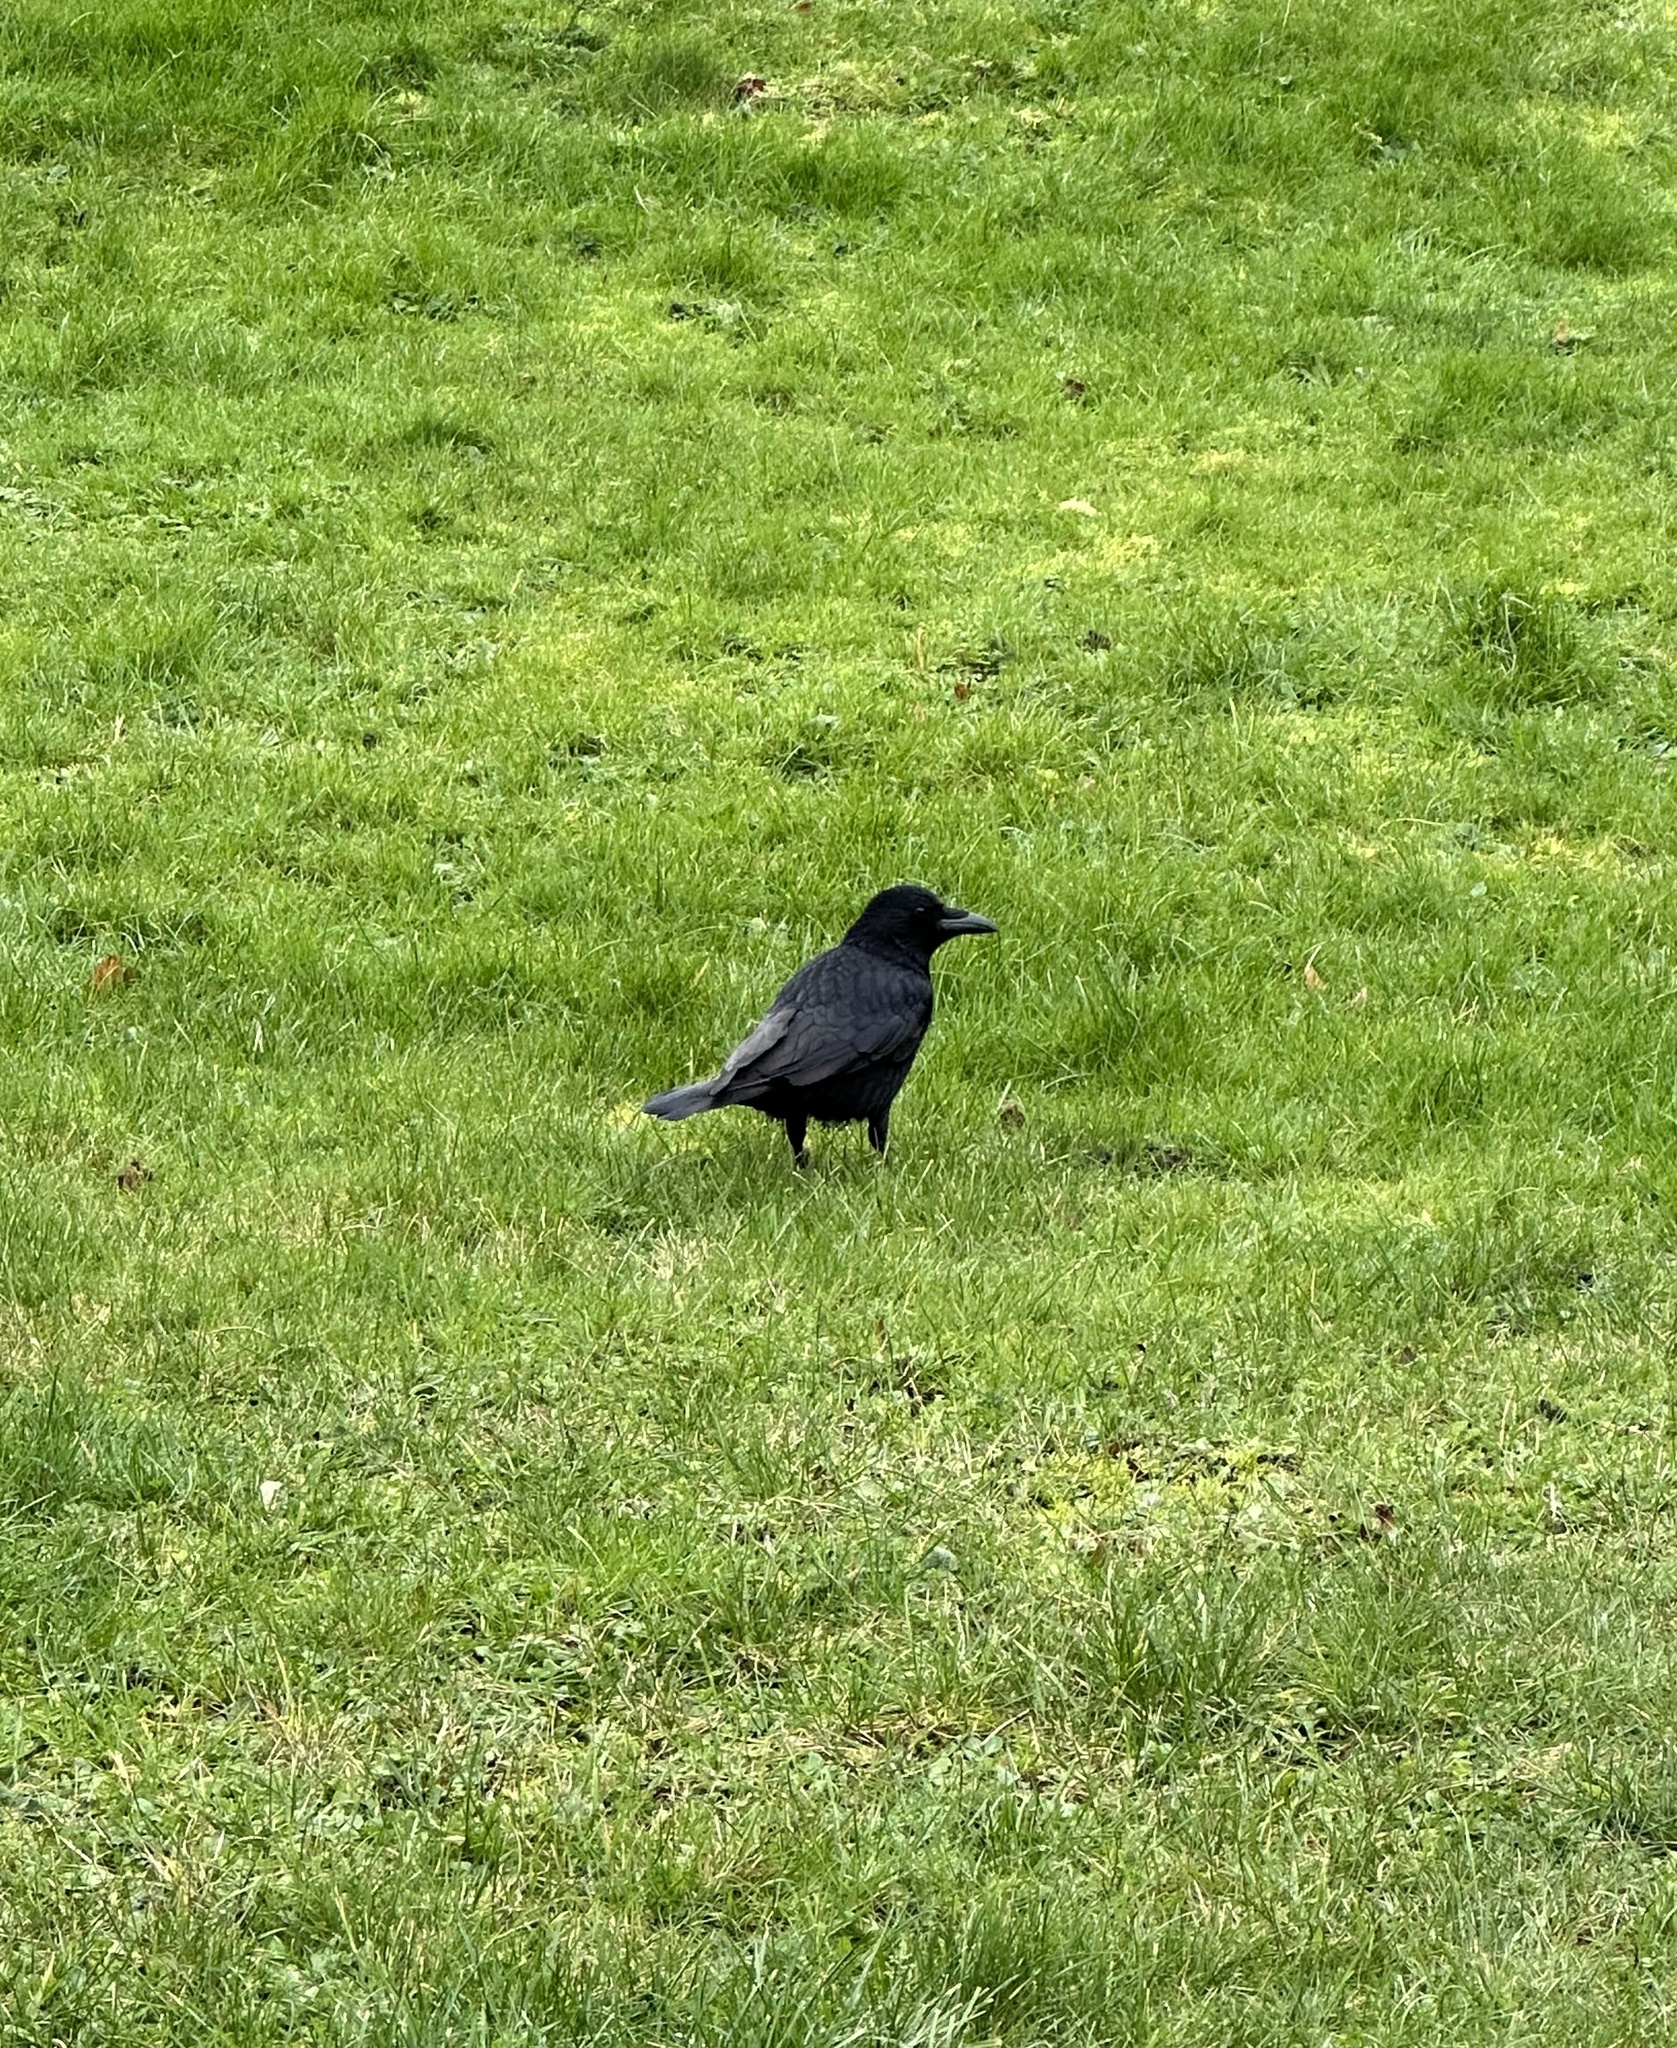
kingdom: Animalia
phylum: Chordata
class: Aves
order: Passeriformes
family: Corvidae
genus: Corvus
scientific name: Corvus corone
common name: Carrion crow
